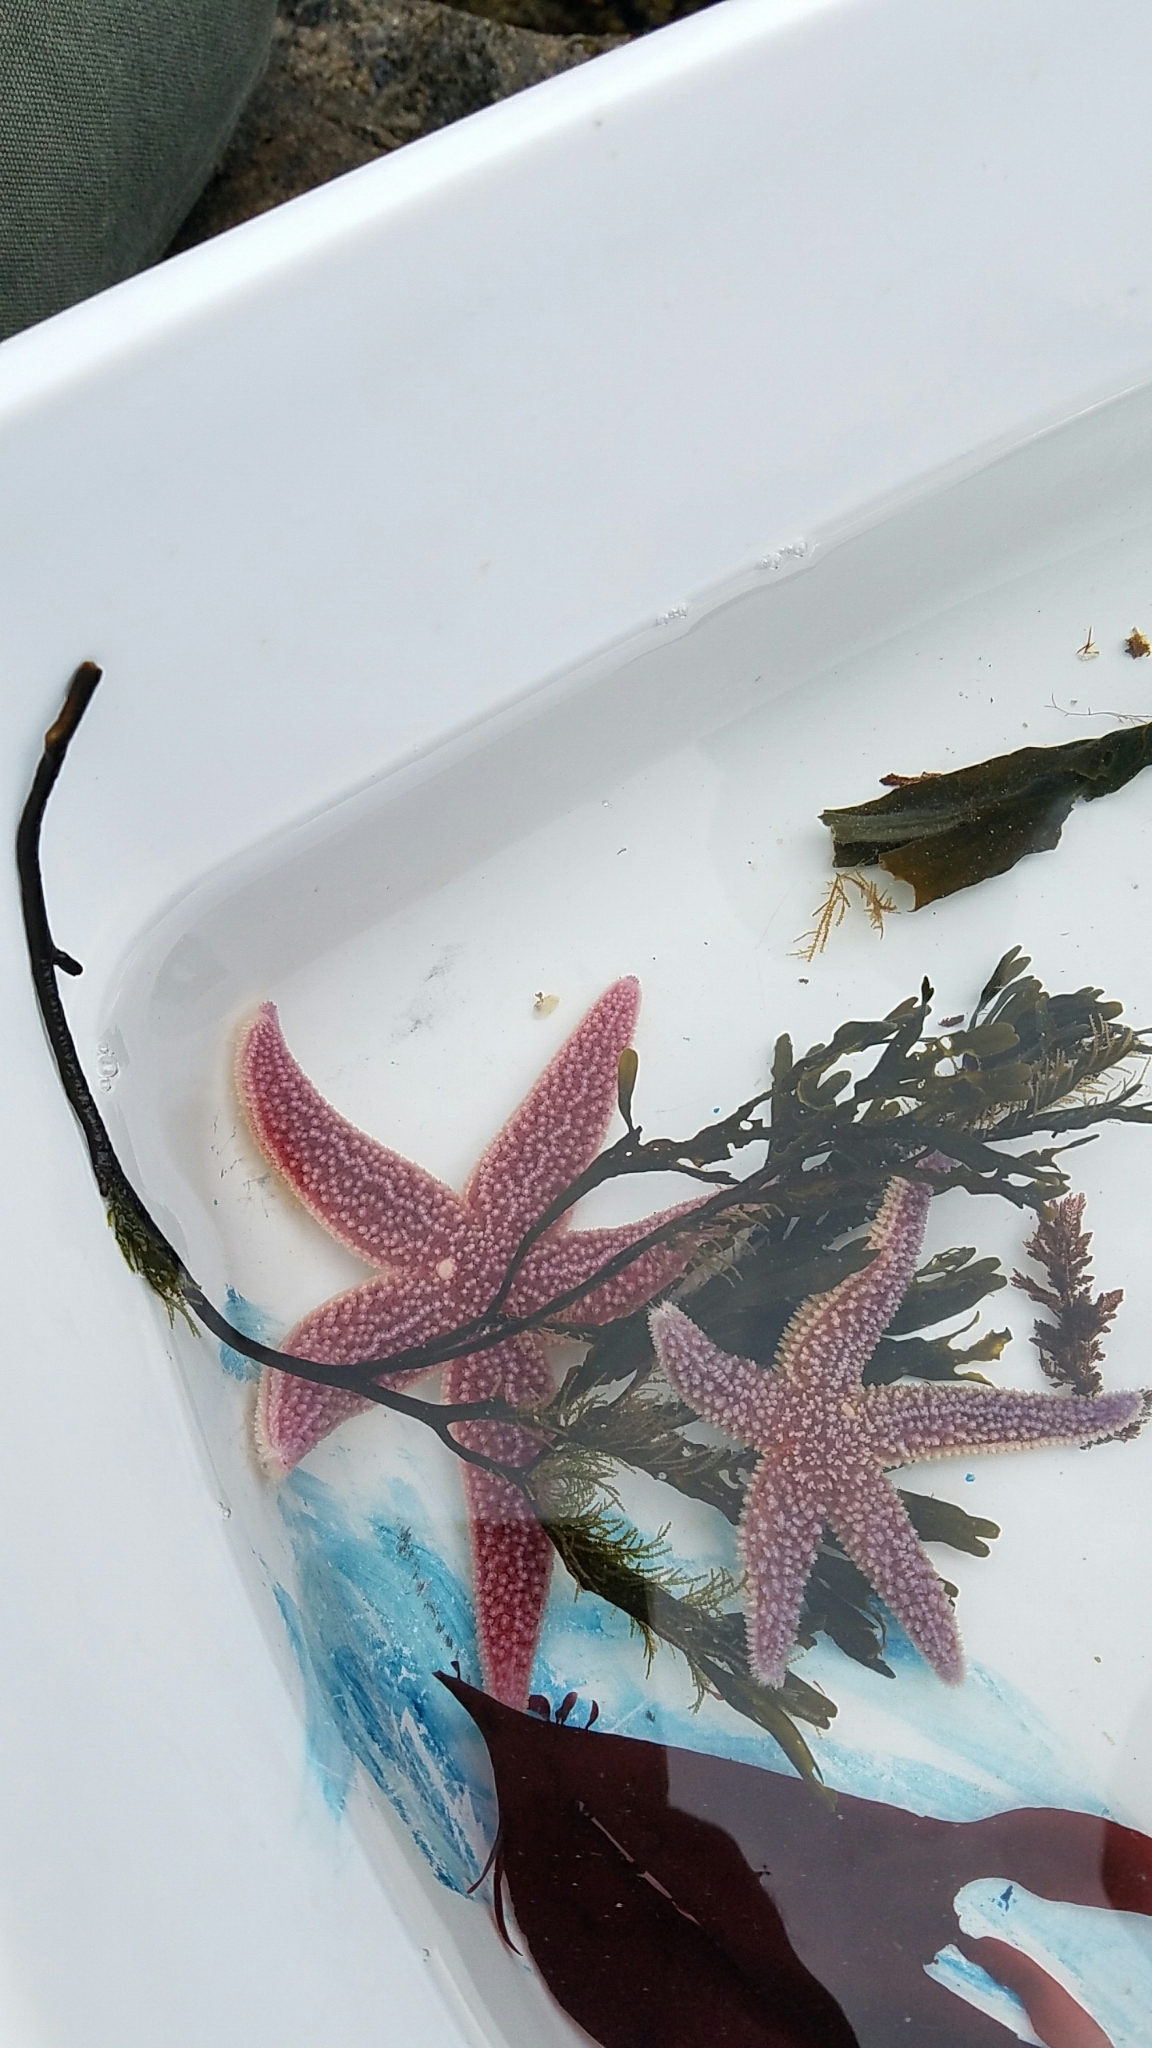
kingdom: Animalia
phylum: Echinodermata
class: Asteroidea
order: Forcipulatida
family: Asteriidae
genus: Asterias
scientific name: Asterias forbesi
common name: Forbes's sea star
